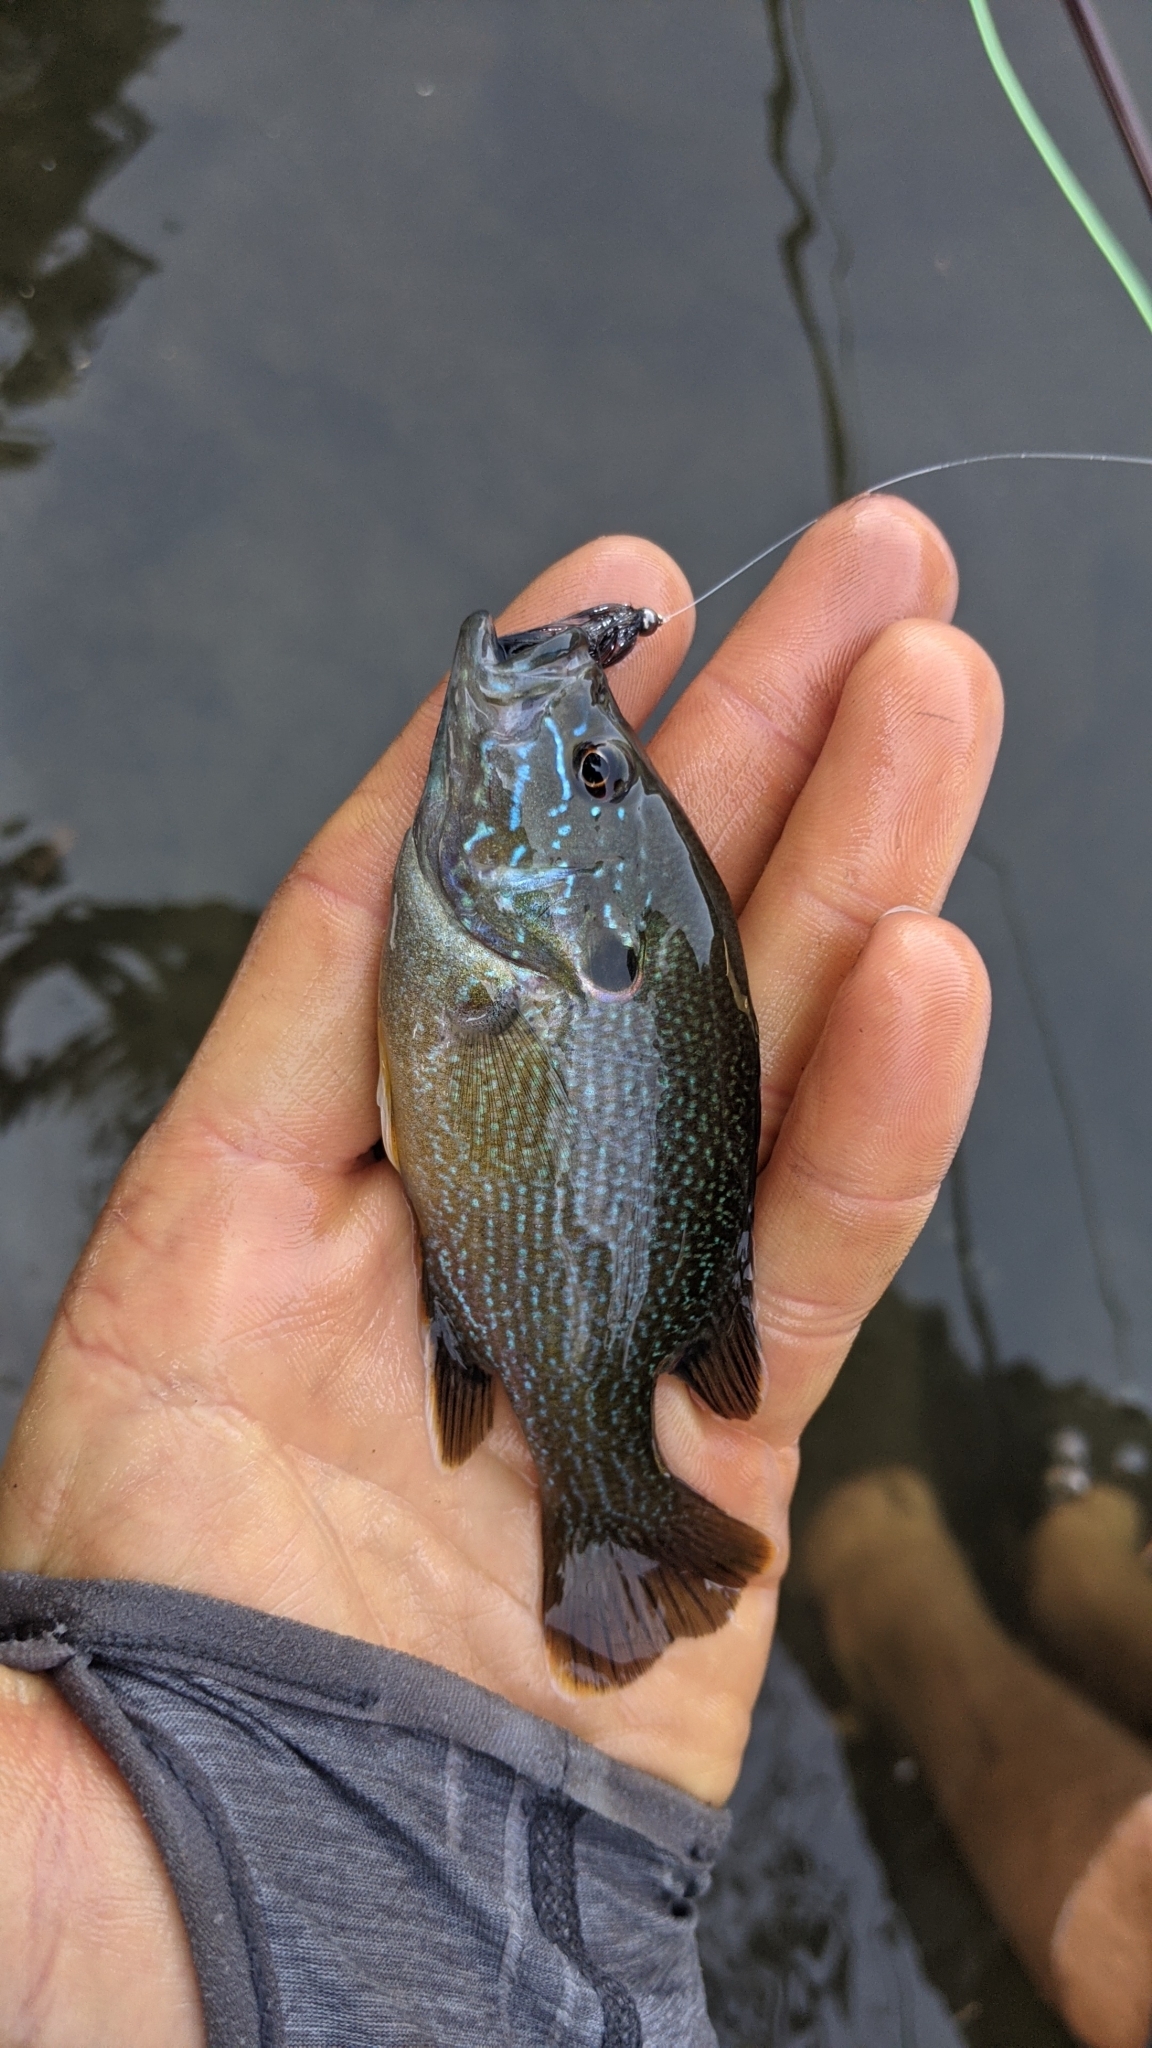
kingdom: Animalia
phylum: Chordata
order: Perciformes
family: Centrarchidae
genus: Lepomis
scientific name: Lepomis cyanellus
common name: Green sunfish
